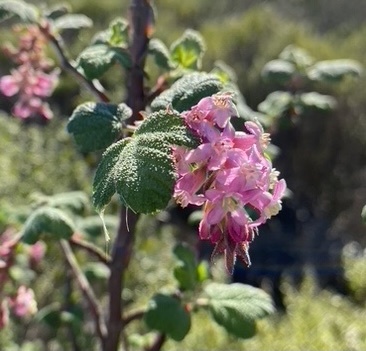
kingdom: Plantae
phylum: Tracheophyta
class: Magnoliopsida
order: Saxifragales
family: Grossulariaceae
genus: Ribes
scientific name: Ribes malvaceum
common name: Chaparral currant
